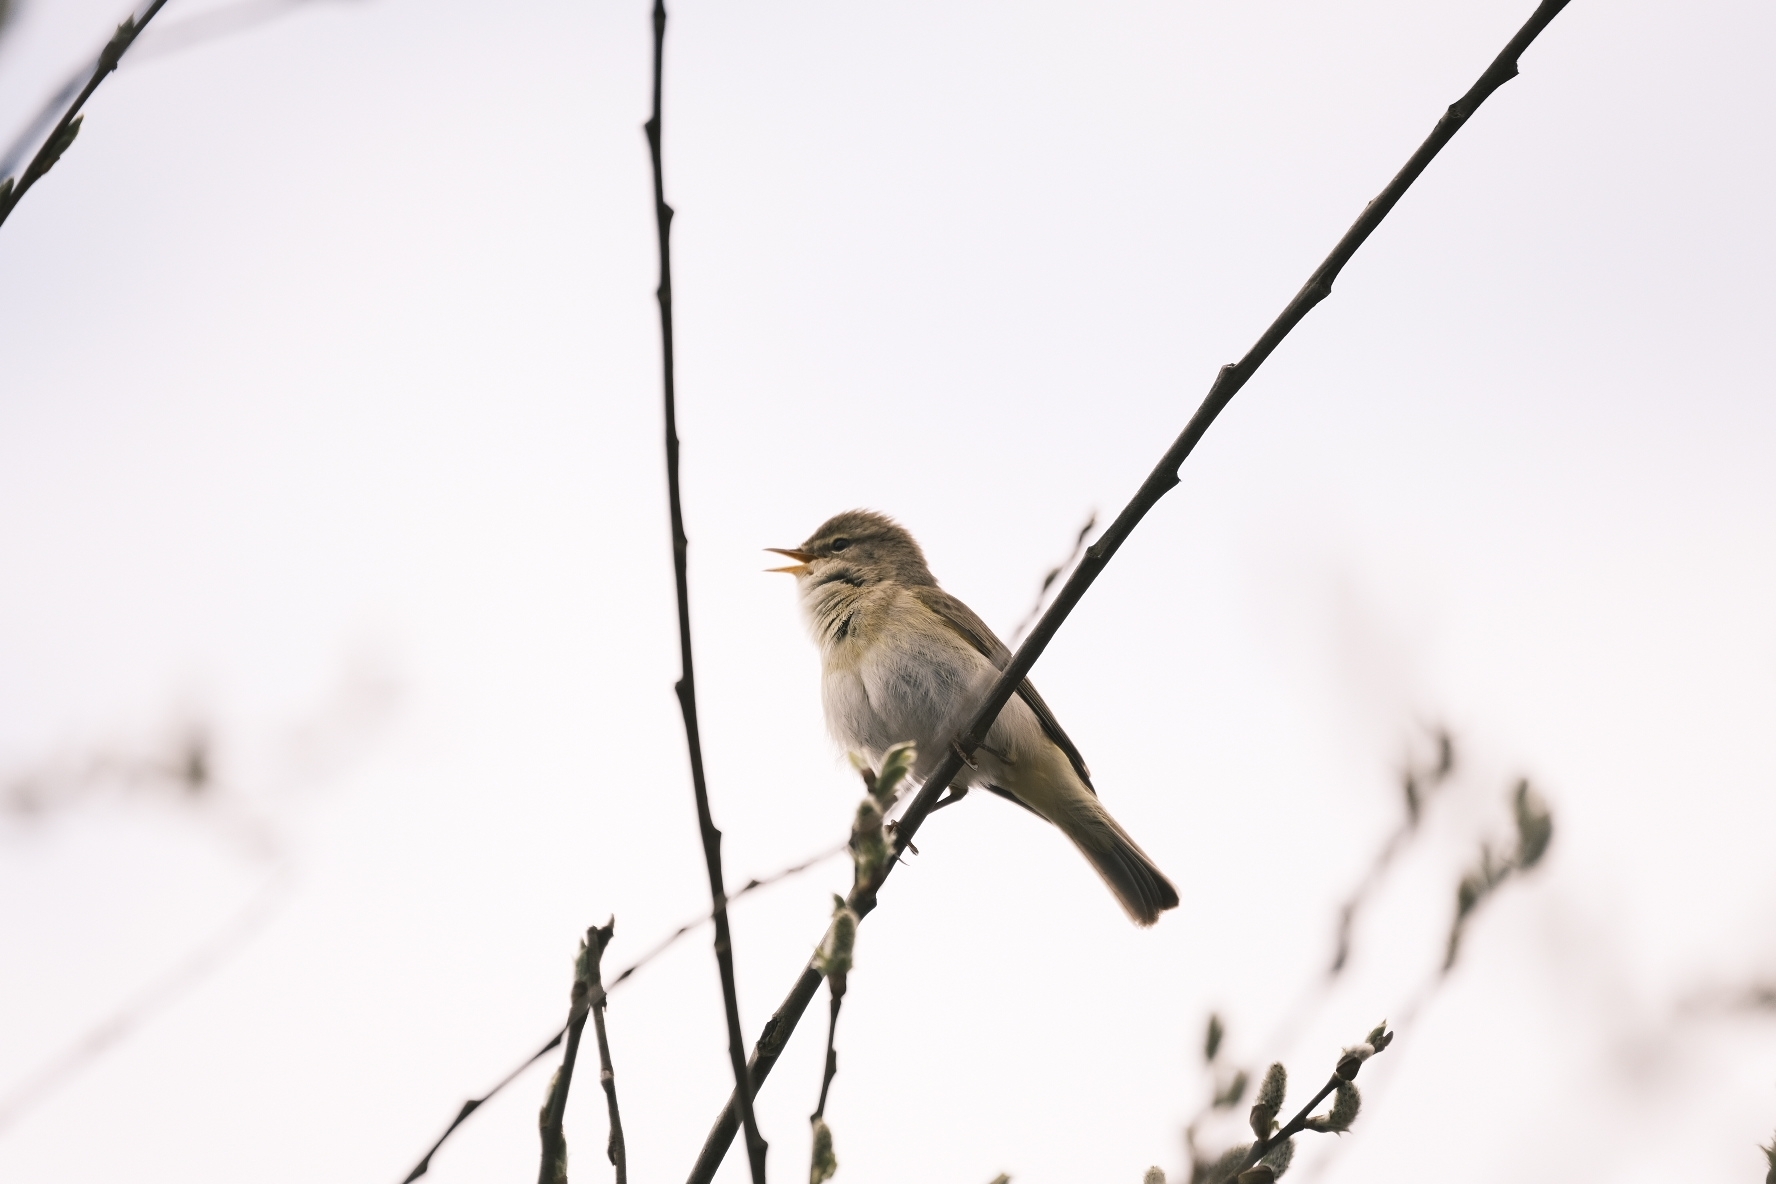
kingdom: Animalia
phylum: Chordata
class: Aves
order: Passeriformes
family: Phylloscopidae
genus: Phylloscopus
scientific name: Phylloscopus trochilus
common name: Willow warbler
